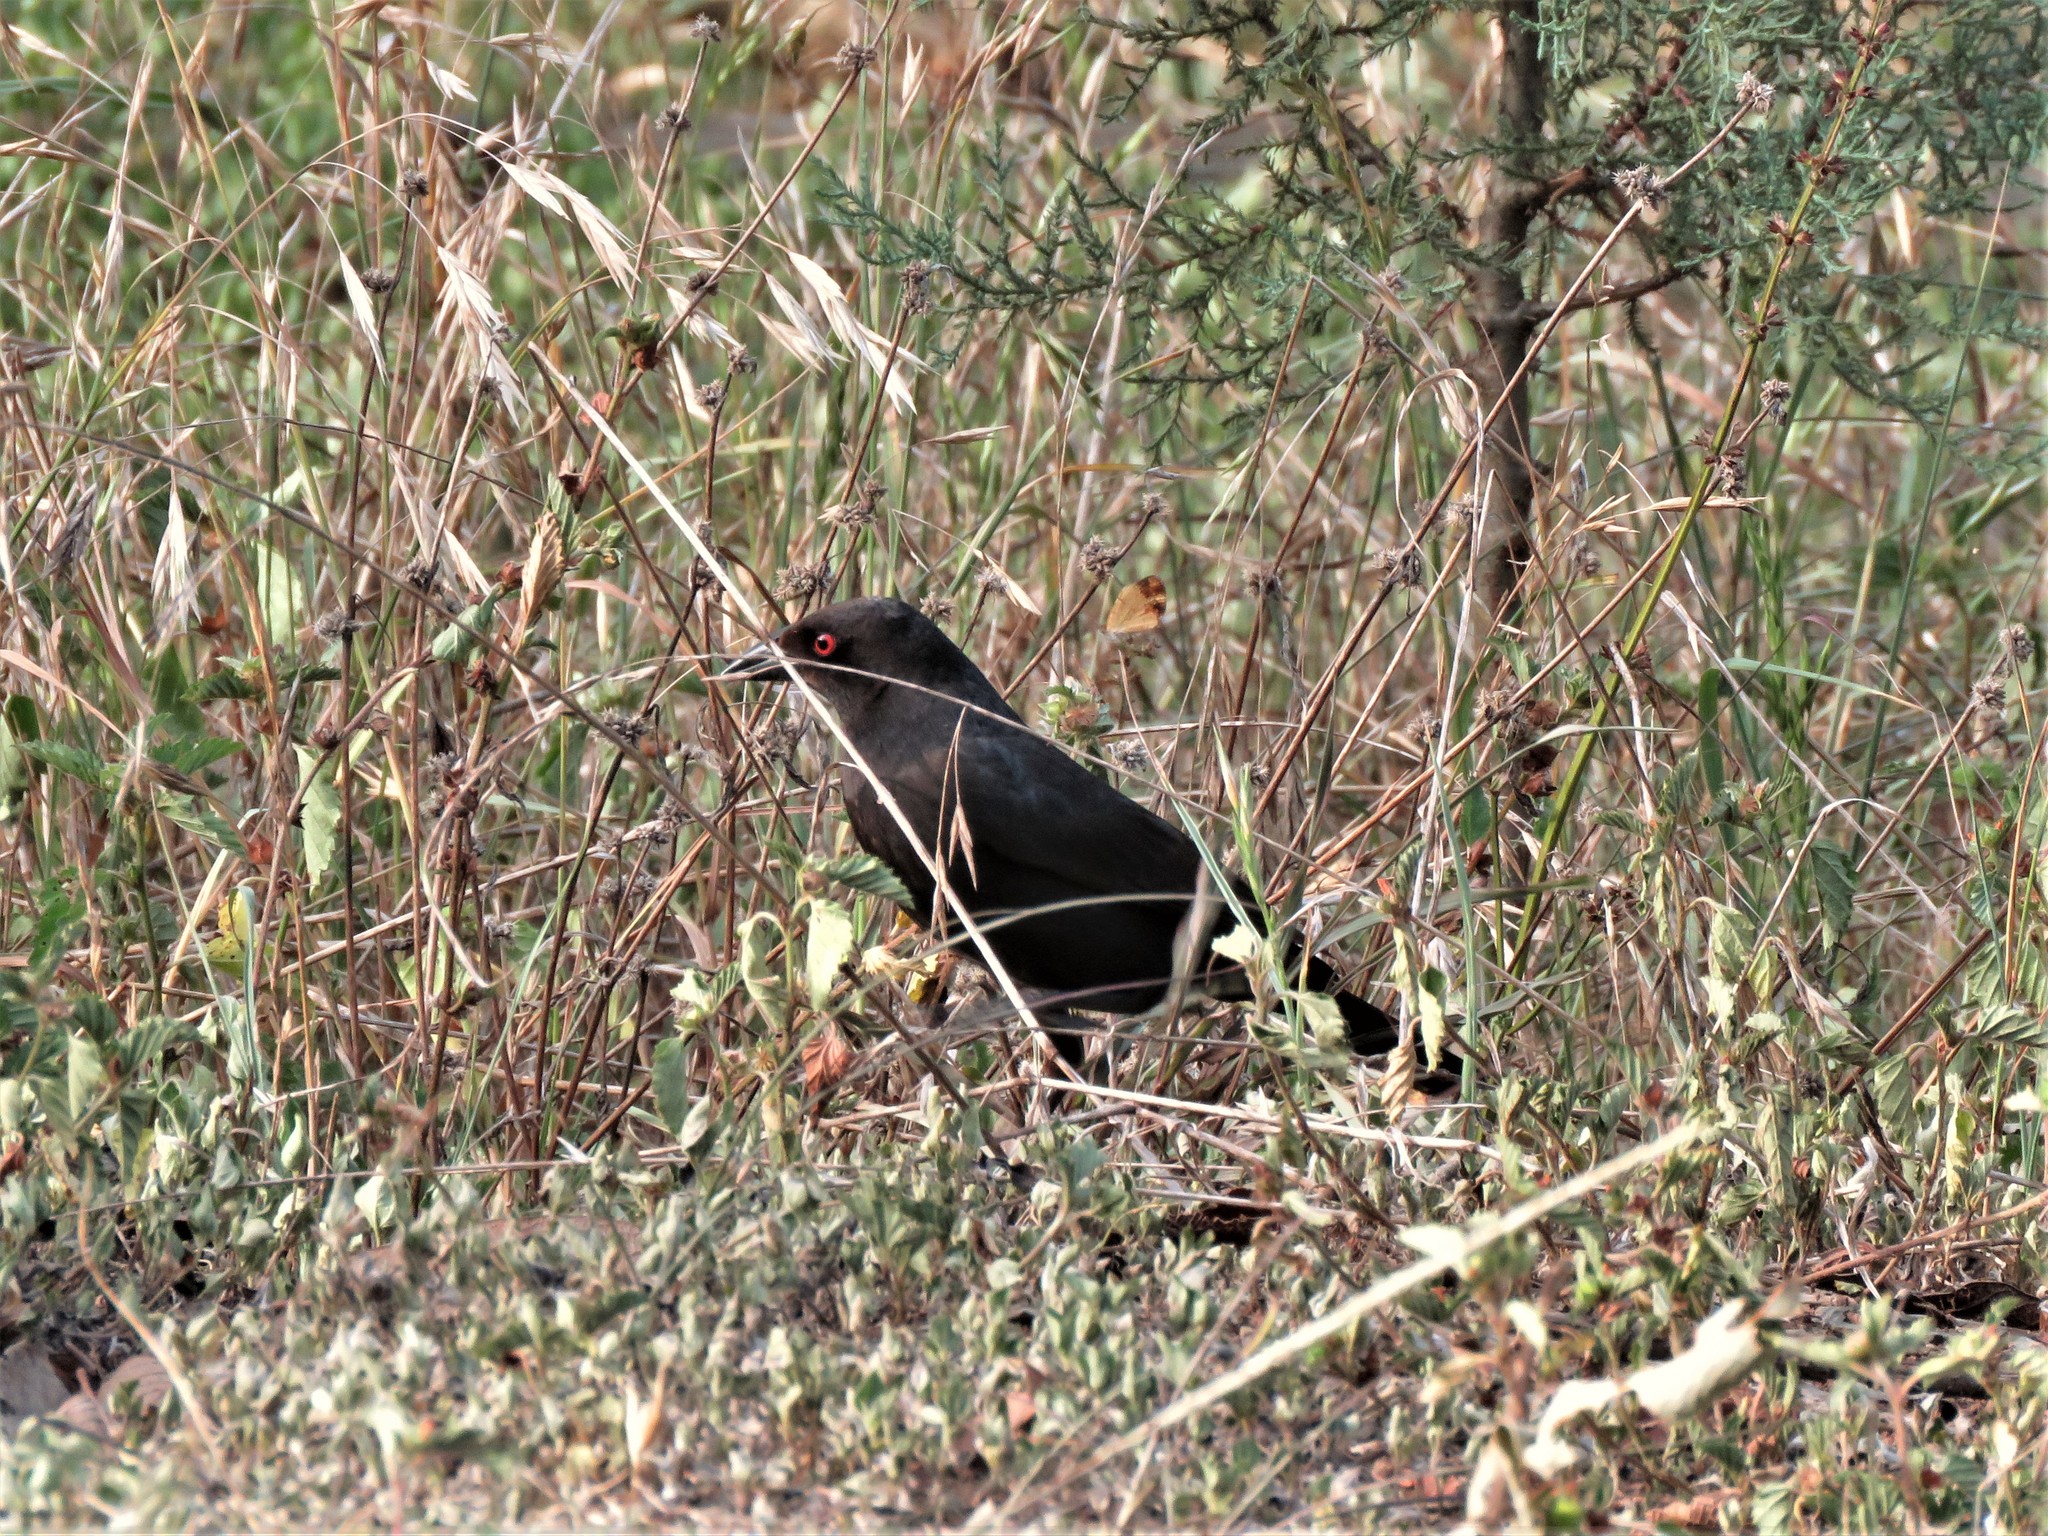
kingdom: Animalia
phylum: Chordata
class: Aves
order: Passeriformes
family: Icteridae
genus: Molothrus
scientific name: Molothrus aeneus
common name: Bronzed cowbird
